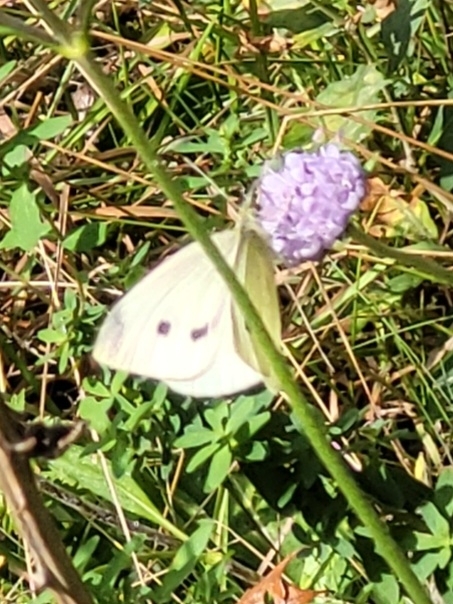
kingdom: Animalia
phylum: Arthropoda
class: Insecta
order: Lepidoptera
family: Pieridae
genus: Pieris
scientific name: Pieris rapae
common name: Small white
